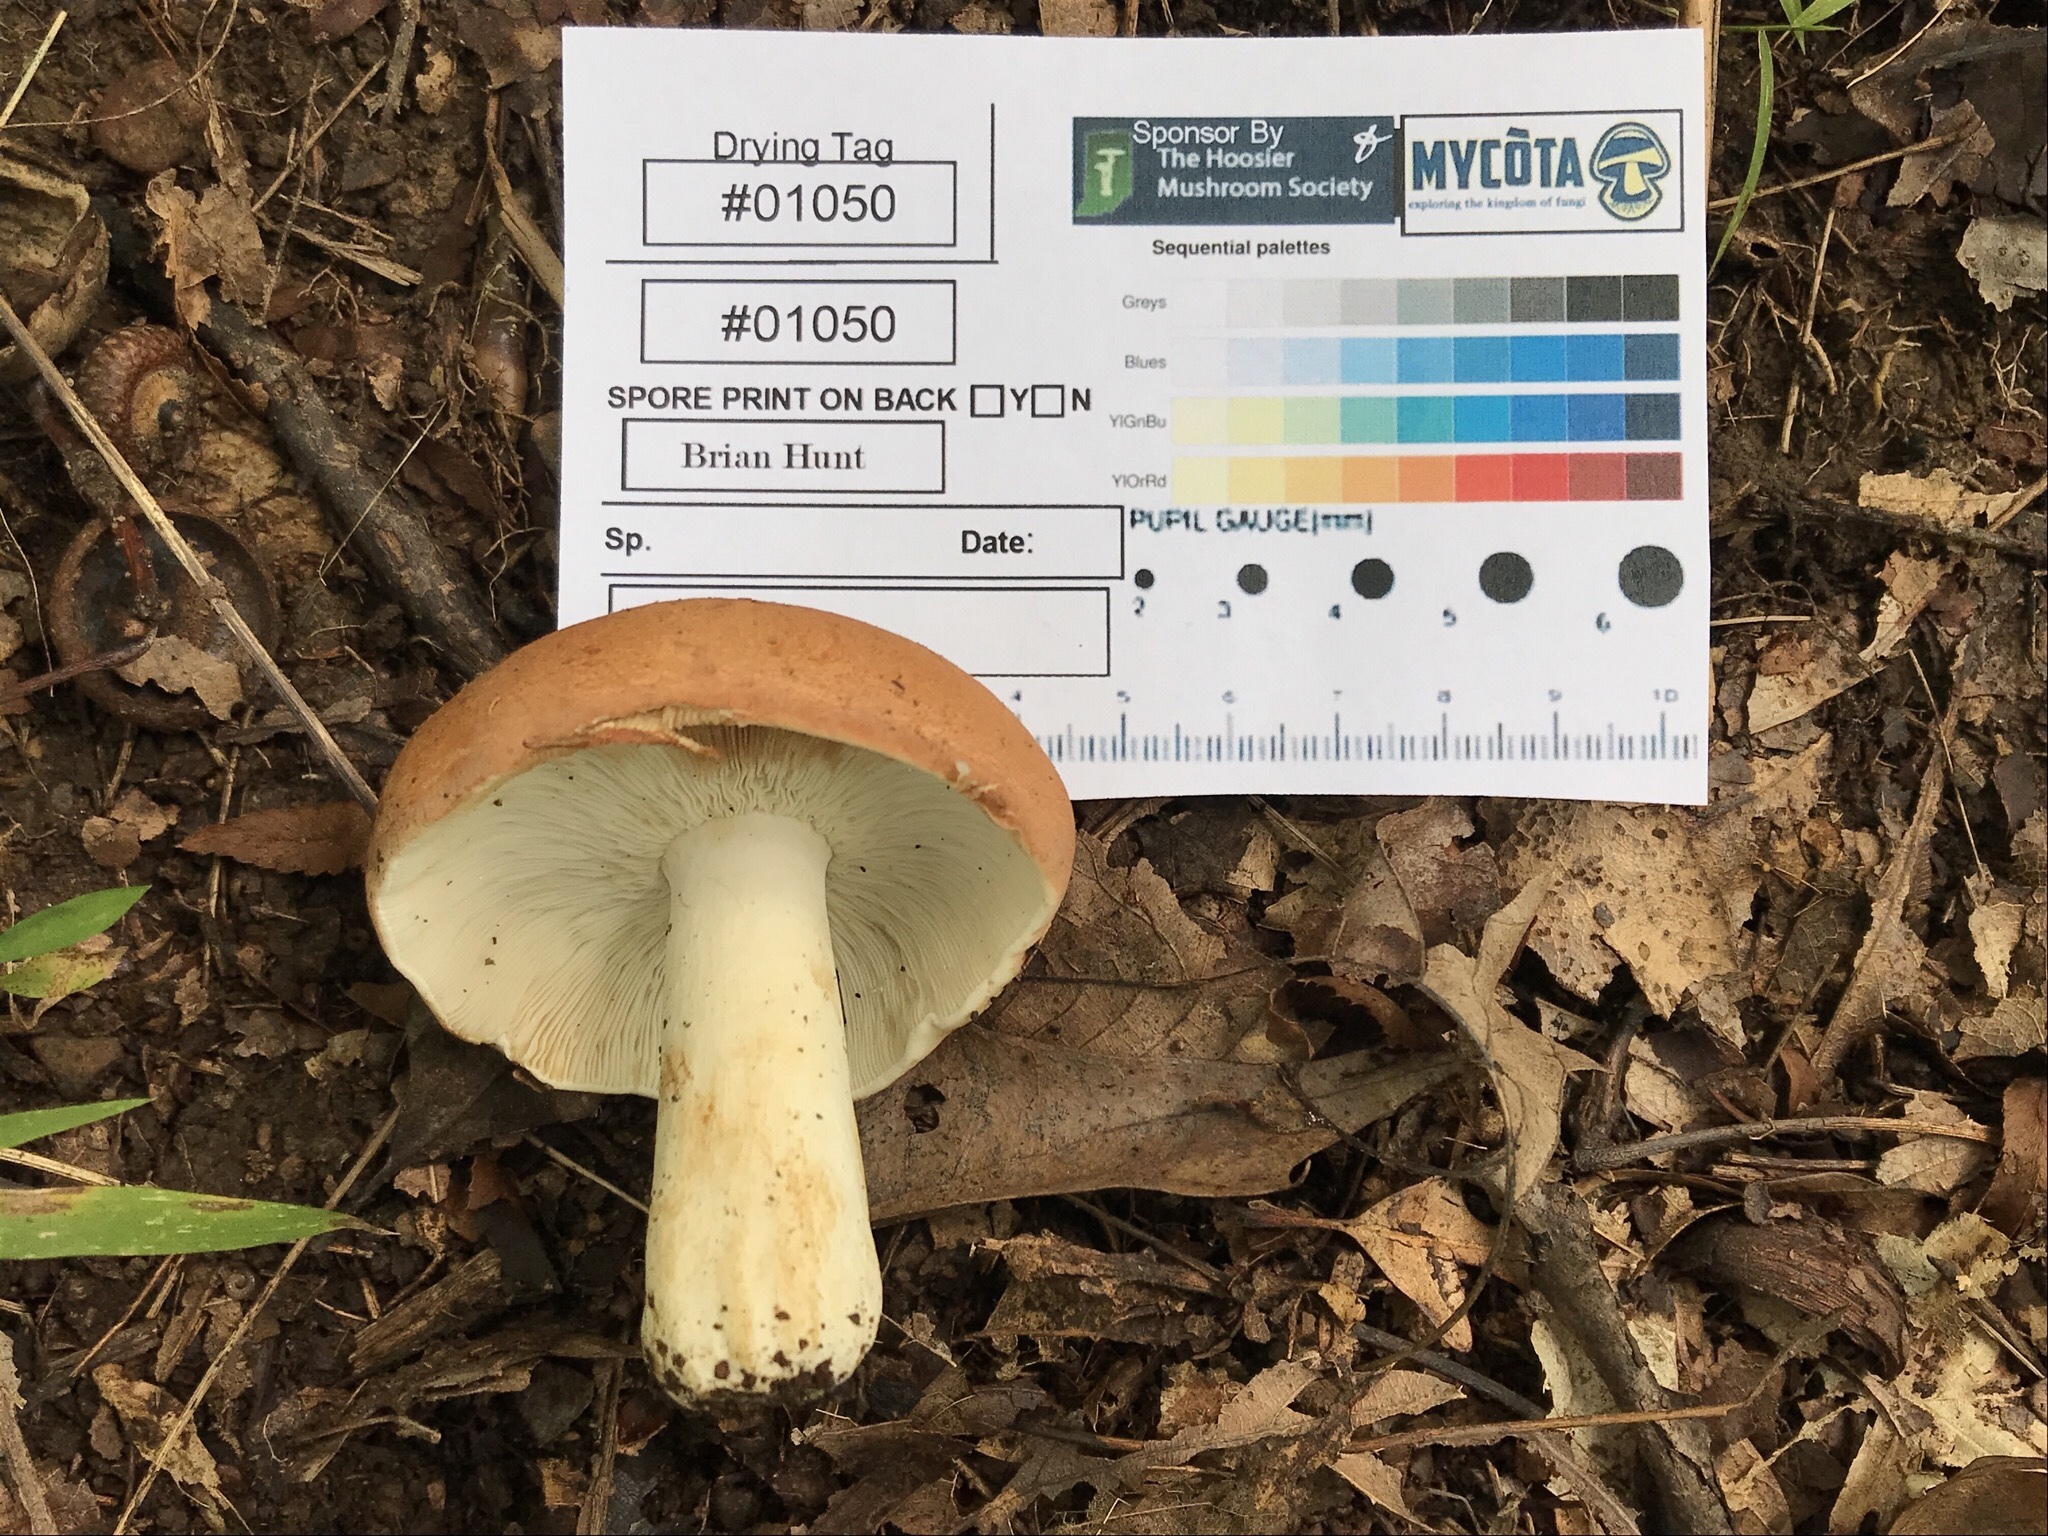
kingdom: Fungi
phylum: Basidiomycota
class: Agaricomycetes
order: Russulales
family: Russulaceae
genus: Russula
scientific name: Russula compacta
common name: Fishbiscuit russula
